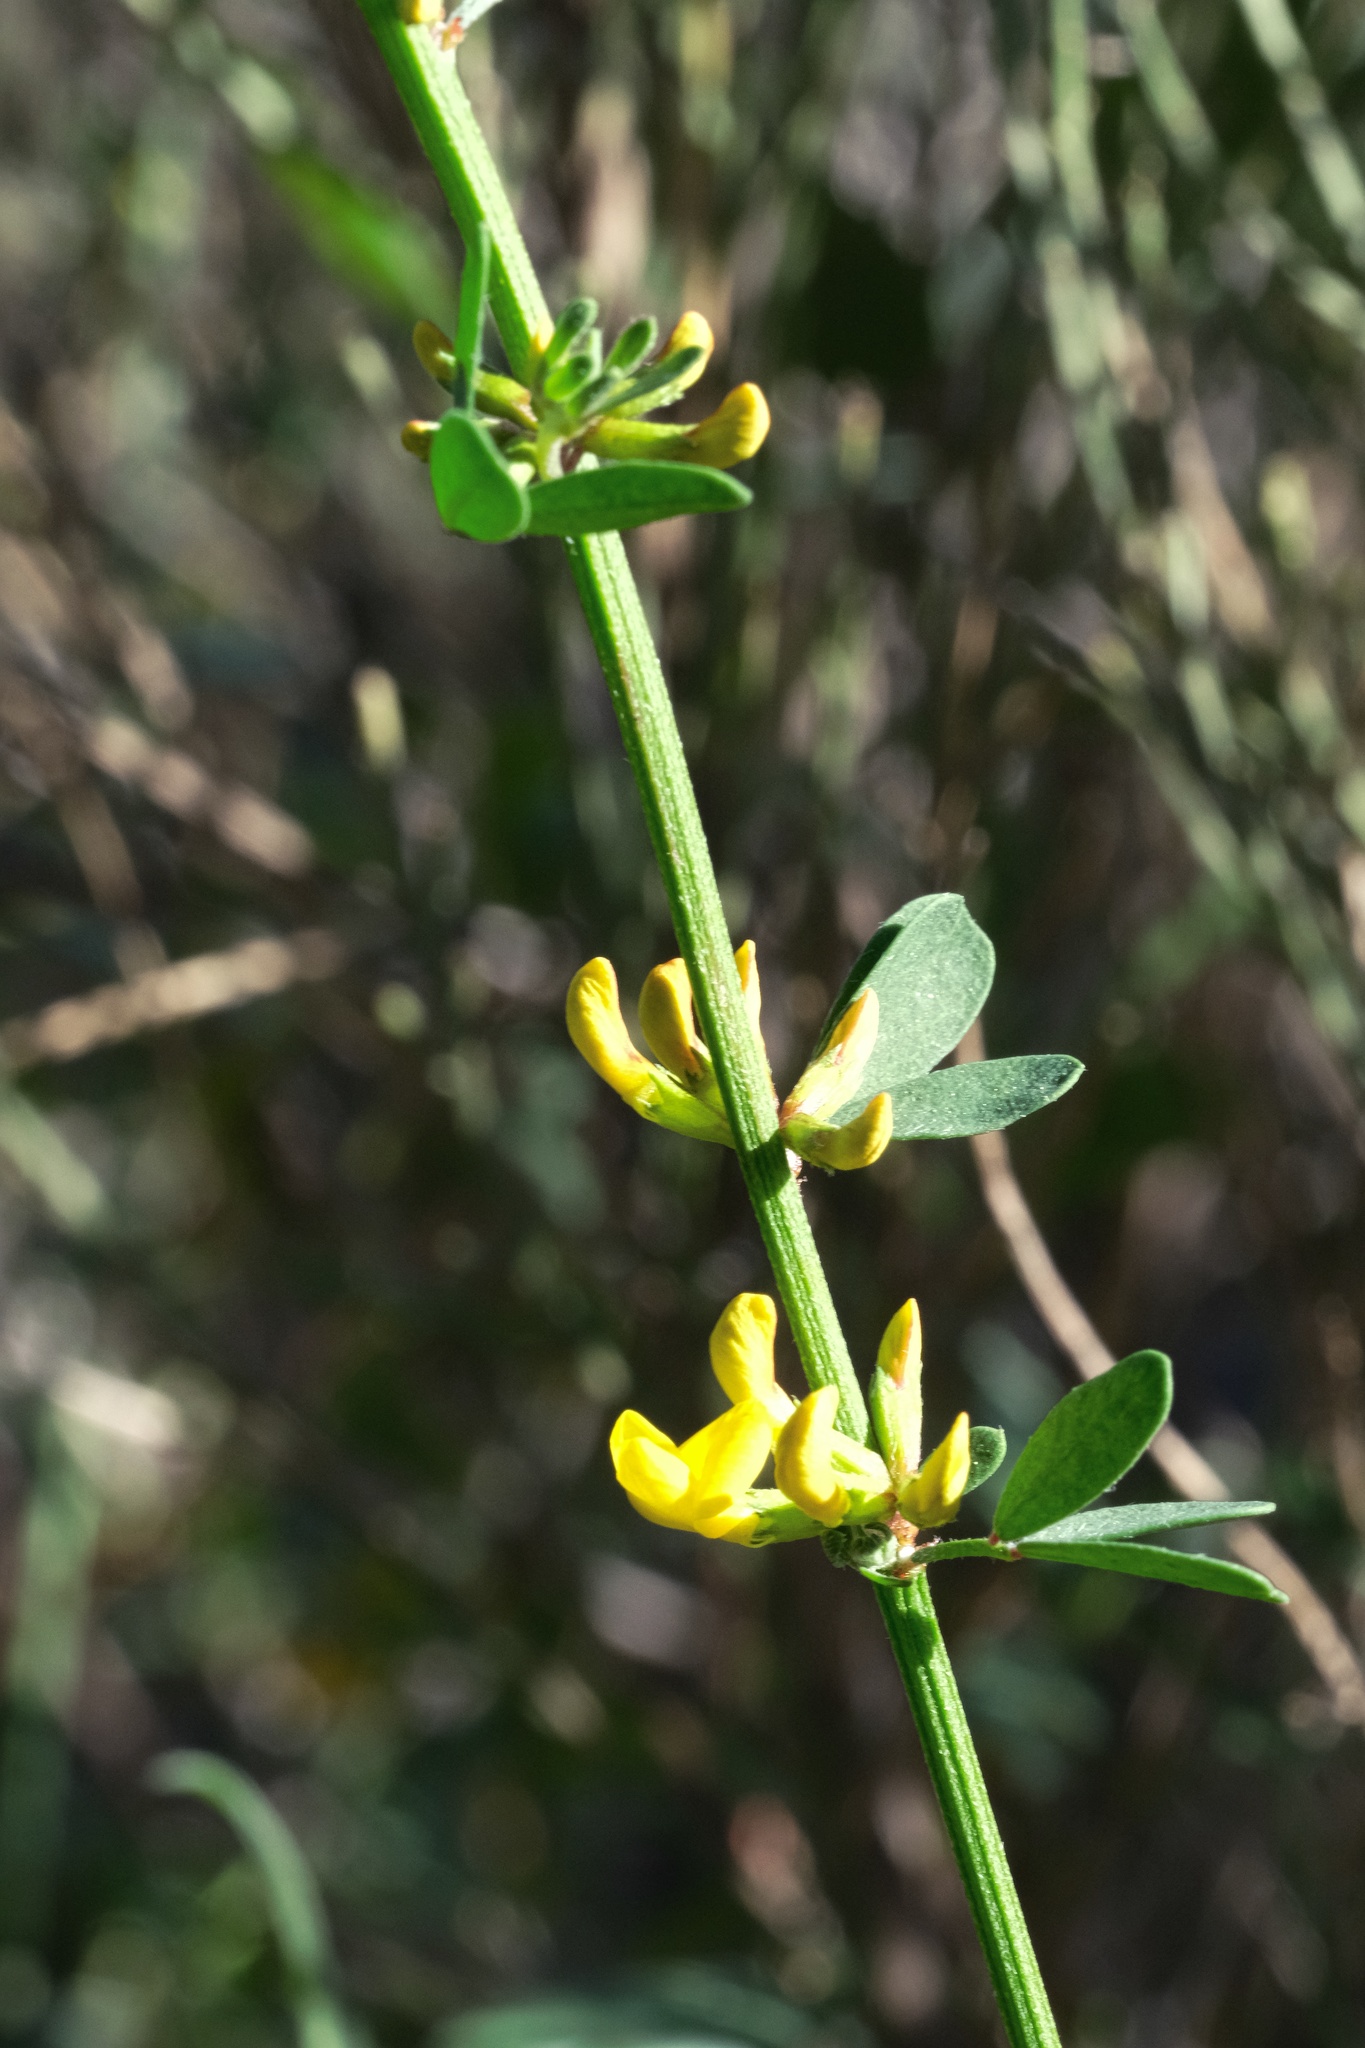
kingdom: Plantae
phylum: Tracheophyta
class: Magnoliopsida
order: Fabales
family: Fabaceae
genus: Acmispon
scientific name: Acmispon glaber
